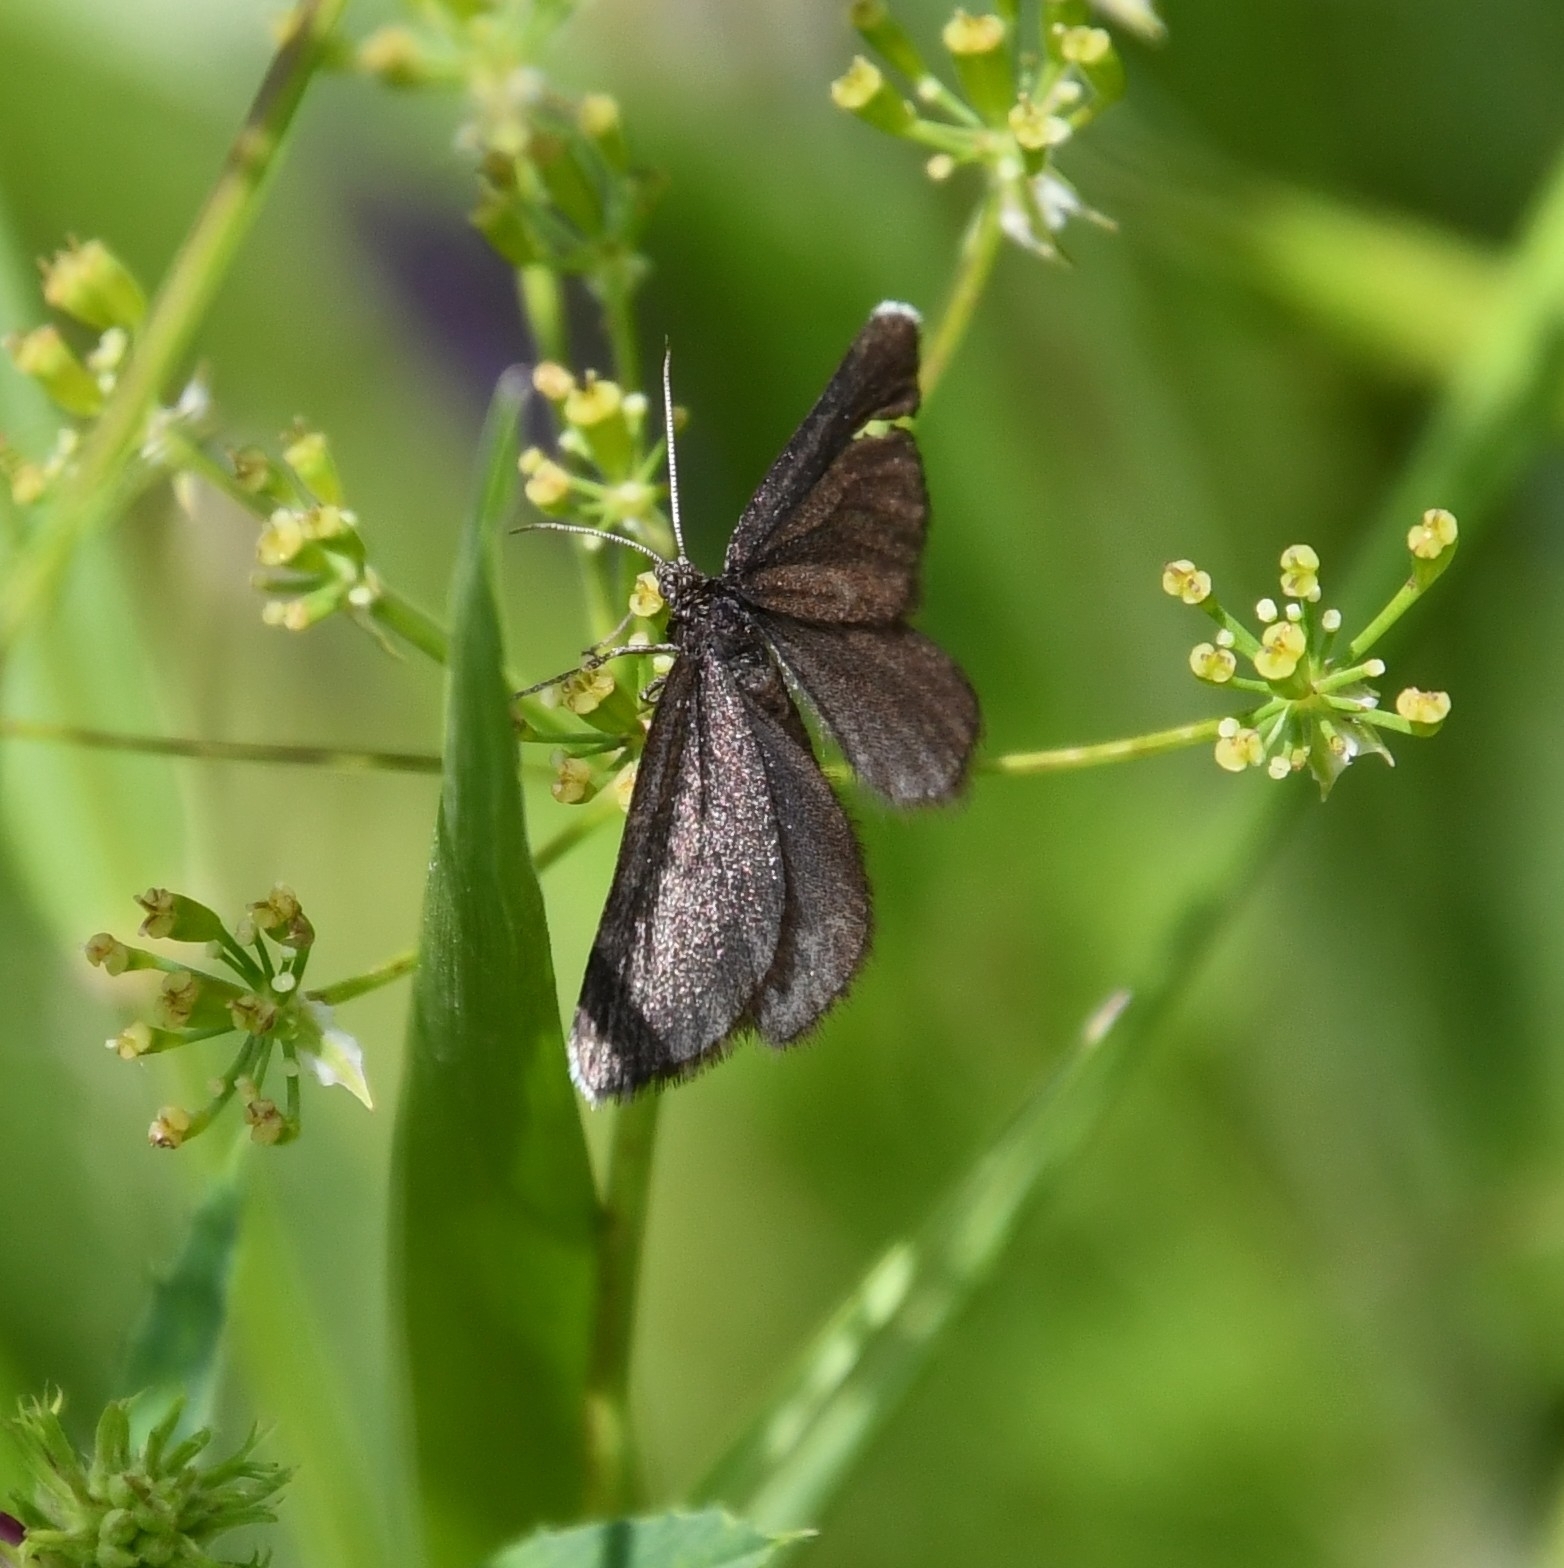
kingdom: Animalia
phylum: Arthropoda
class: Insecta
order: Lepidoptera
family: Geometridae
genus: Odezia
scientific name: Odezia atrata
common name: Chimney sweeper
